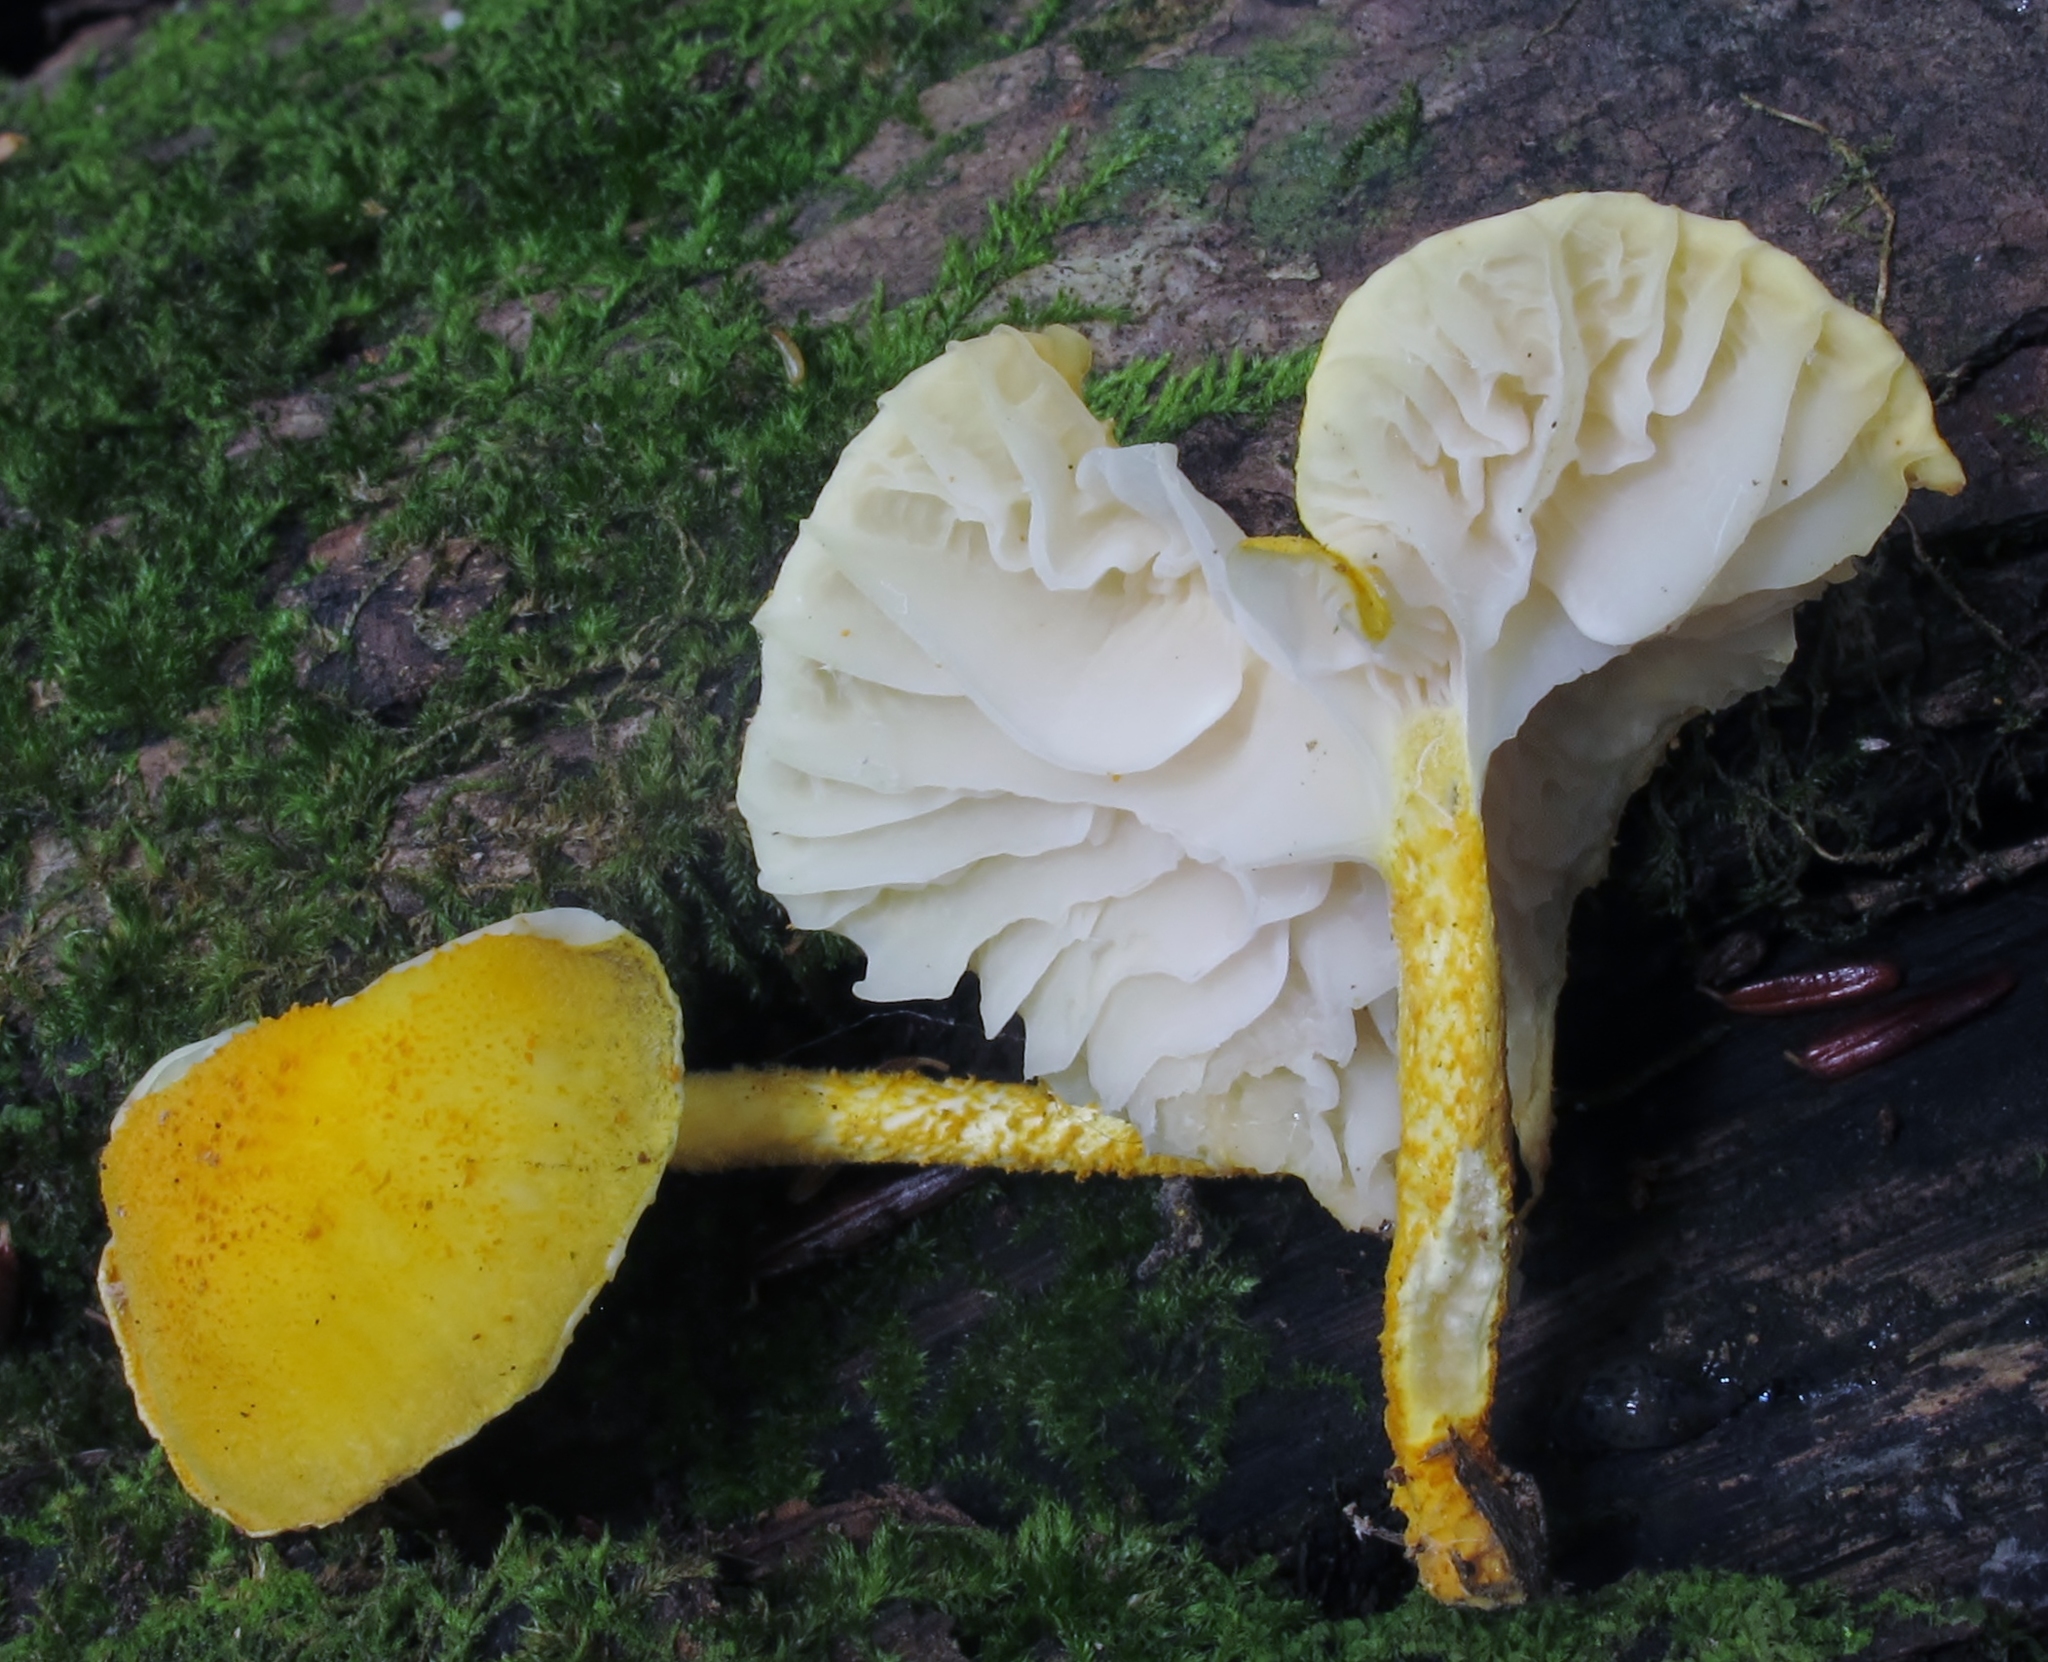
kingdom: Fungi
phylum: Basidiomycota
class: Agaricomycetes
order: Agaricales
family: Physalacriaceae
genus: Cyptotrama
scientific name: Cyptotrama chrysopepla
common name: Golden coincap
